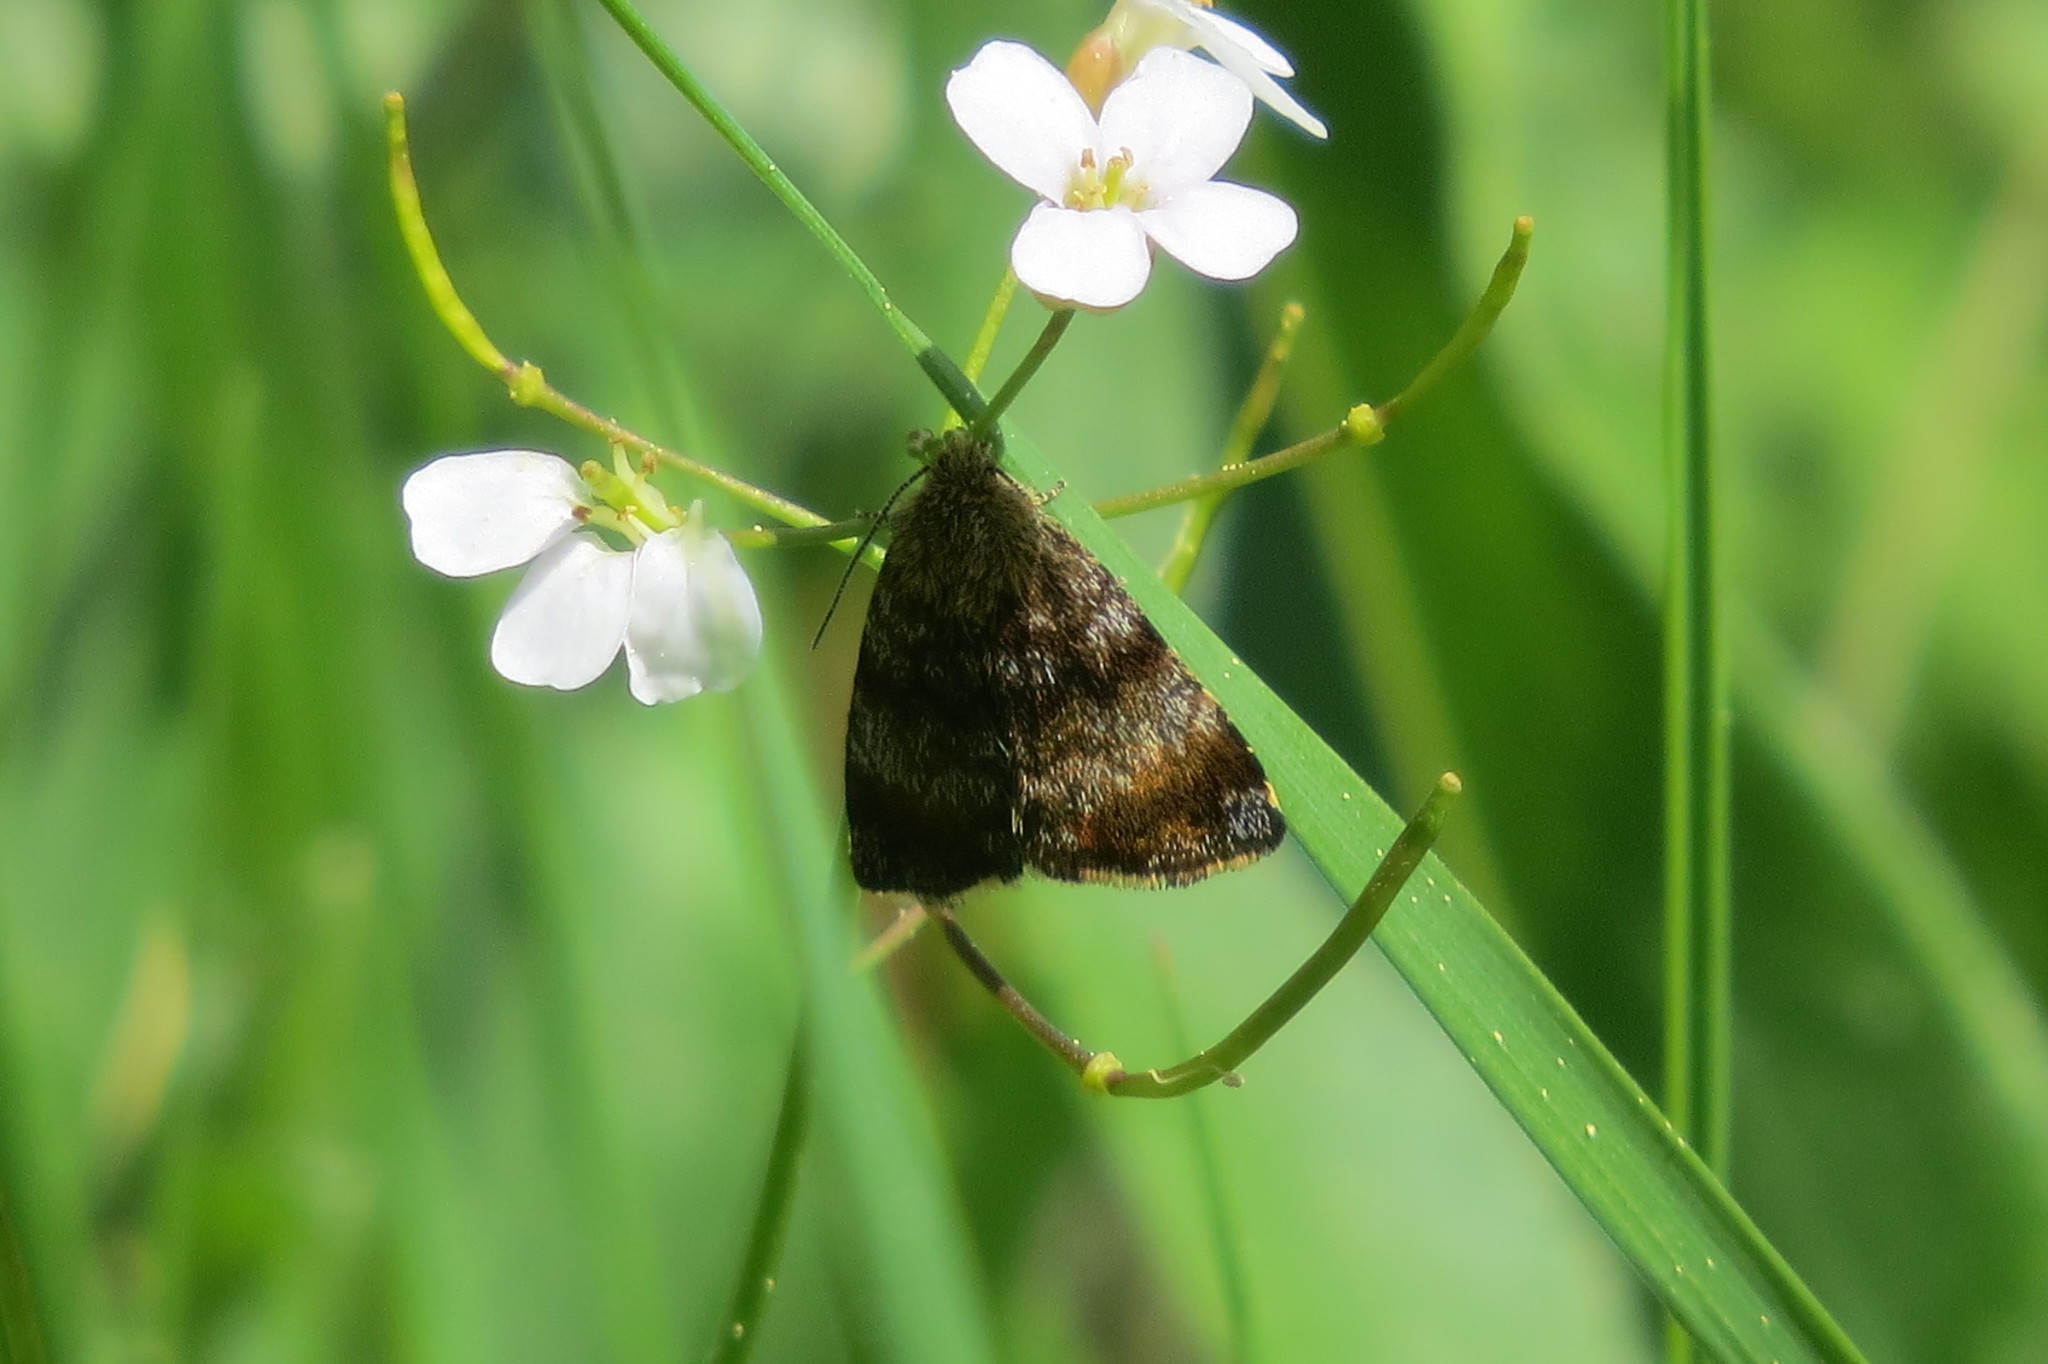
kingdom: Animalia
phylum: Arthropoda
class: Insecta
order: Lepidoptera
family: Noctuidae
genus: Panemeria
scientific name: Panemeria tenebrata
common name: Small yellow underwing
